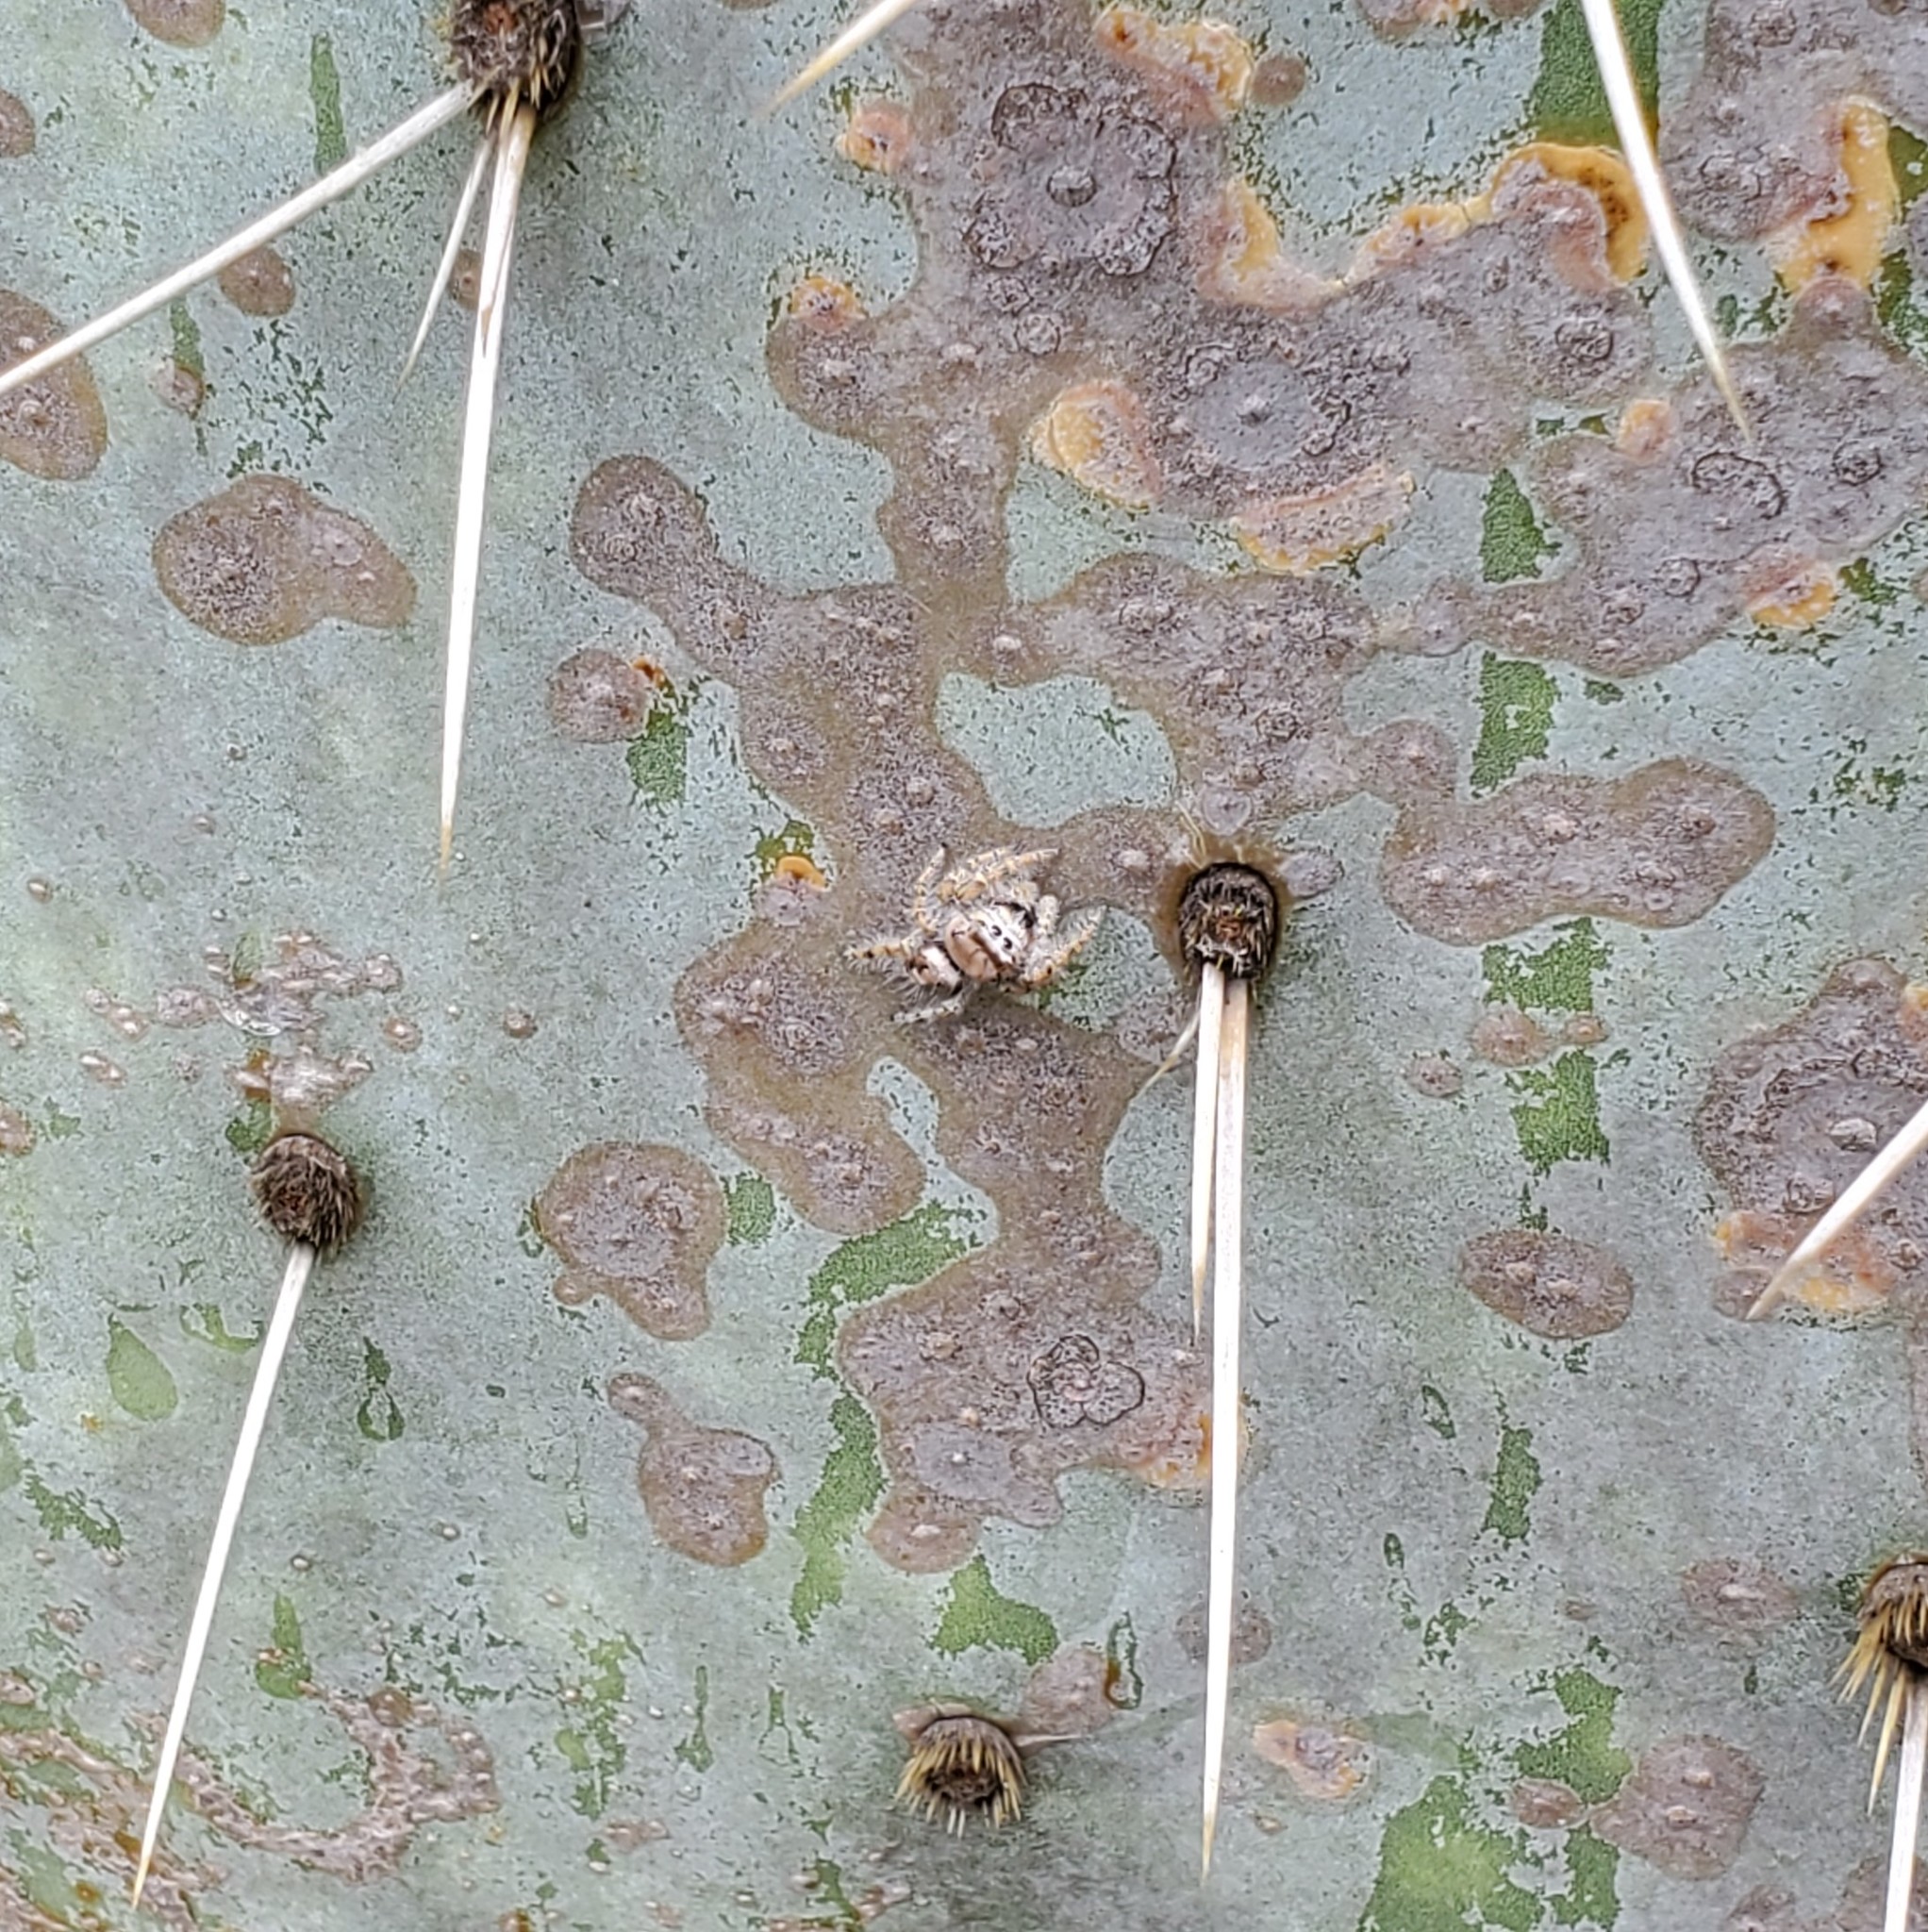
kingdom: Animalia
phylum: Arthropoda
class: Arachnida
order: Araneae
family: Salticidae
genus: Phidippus
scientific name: Phidippus carolinensis
